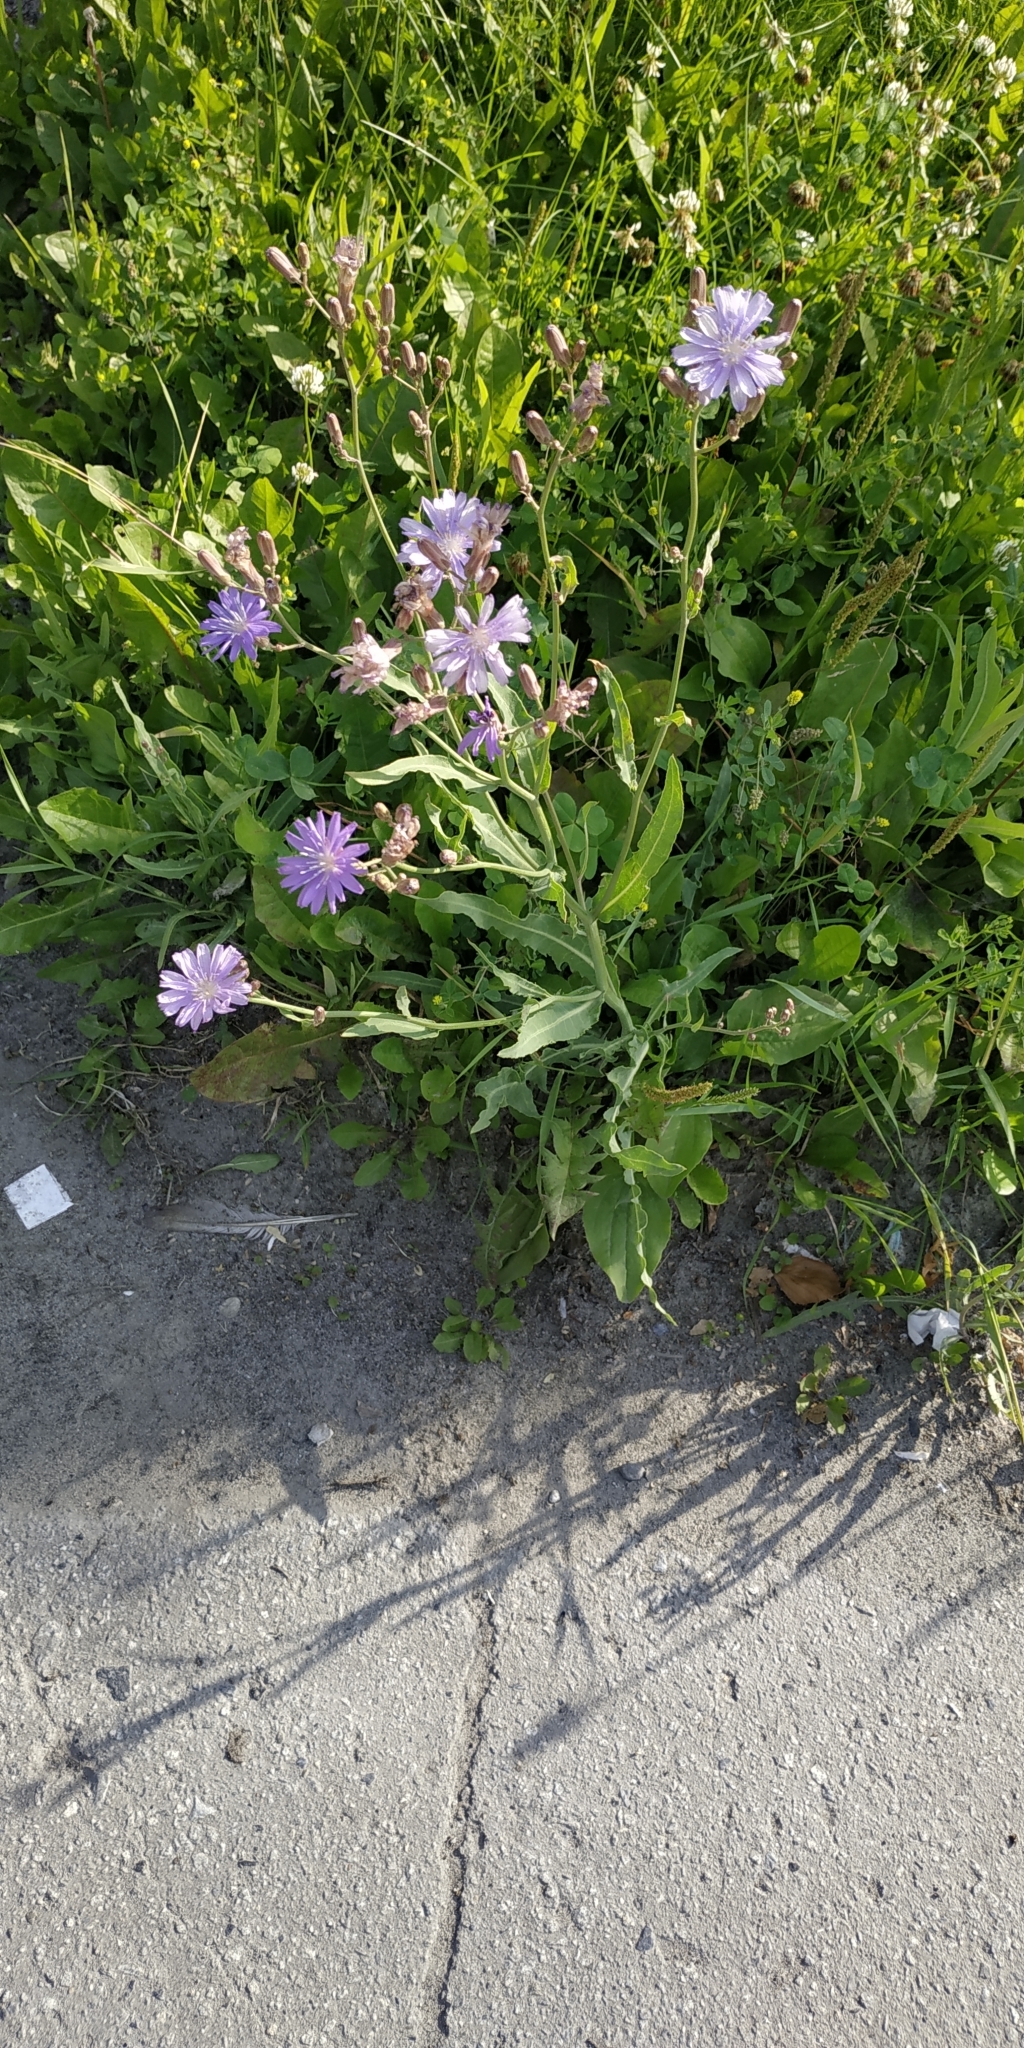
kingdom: Plantae
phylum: Tracheophyta
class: Magnoliopsida
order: Asterales
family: Asteraceae
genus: Lactuca
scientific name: Lactuca tatarica
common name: Blue lettuce
